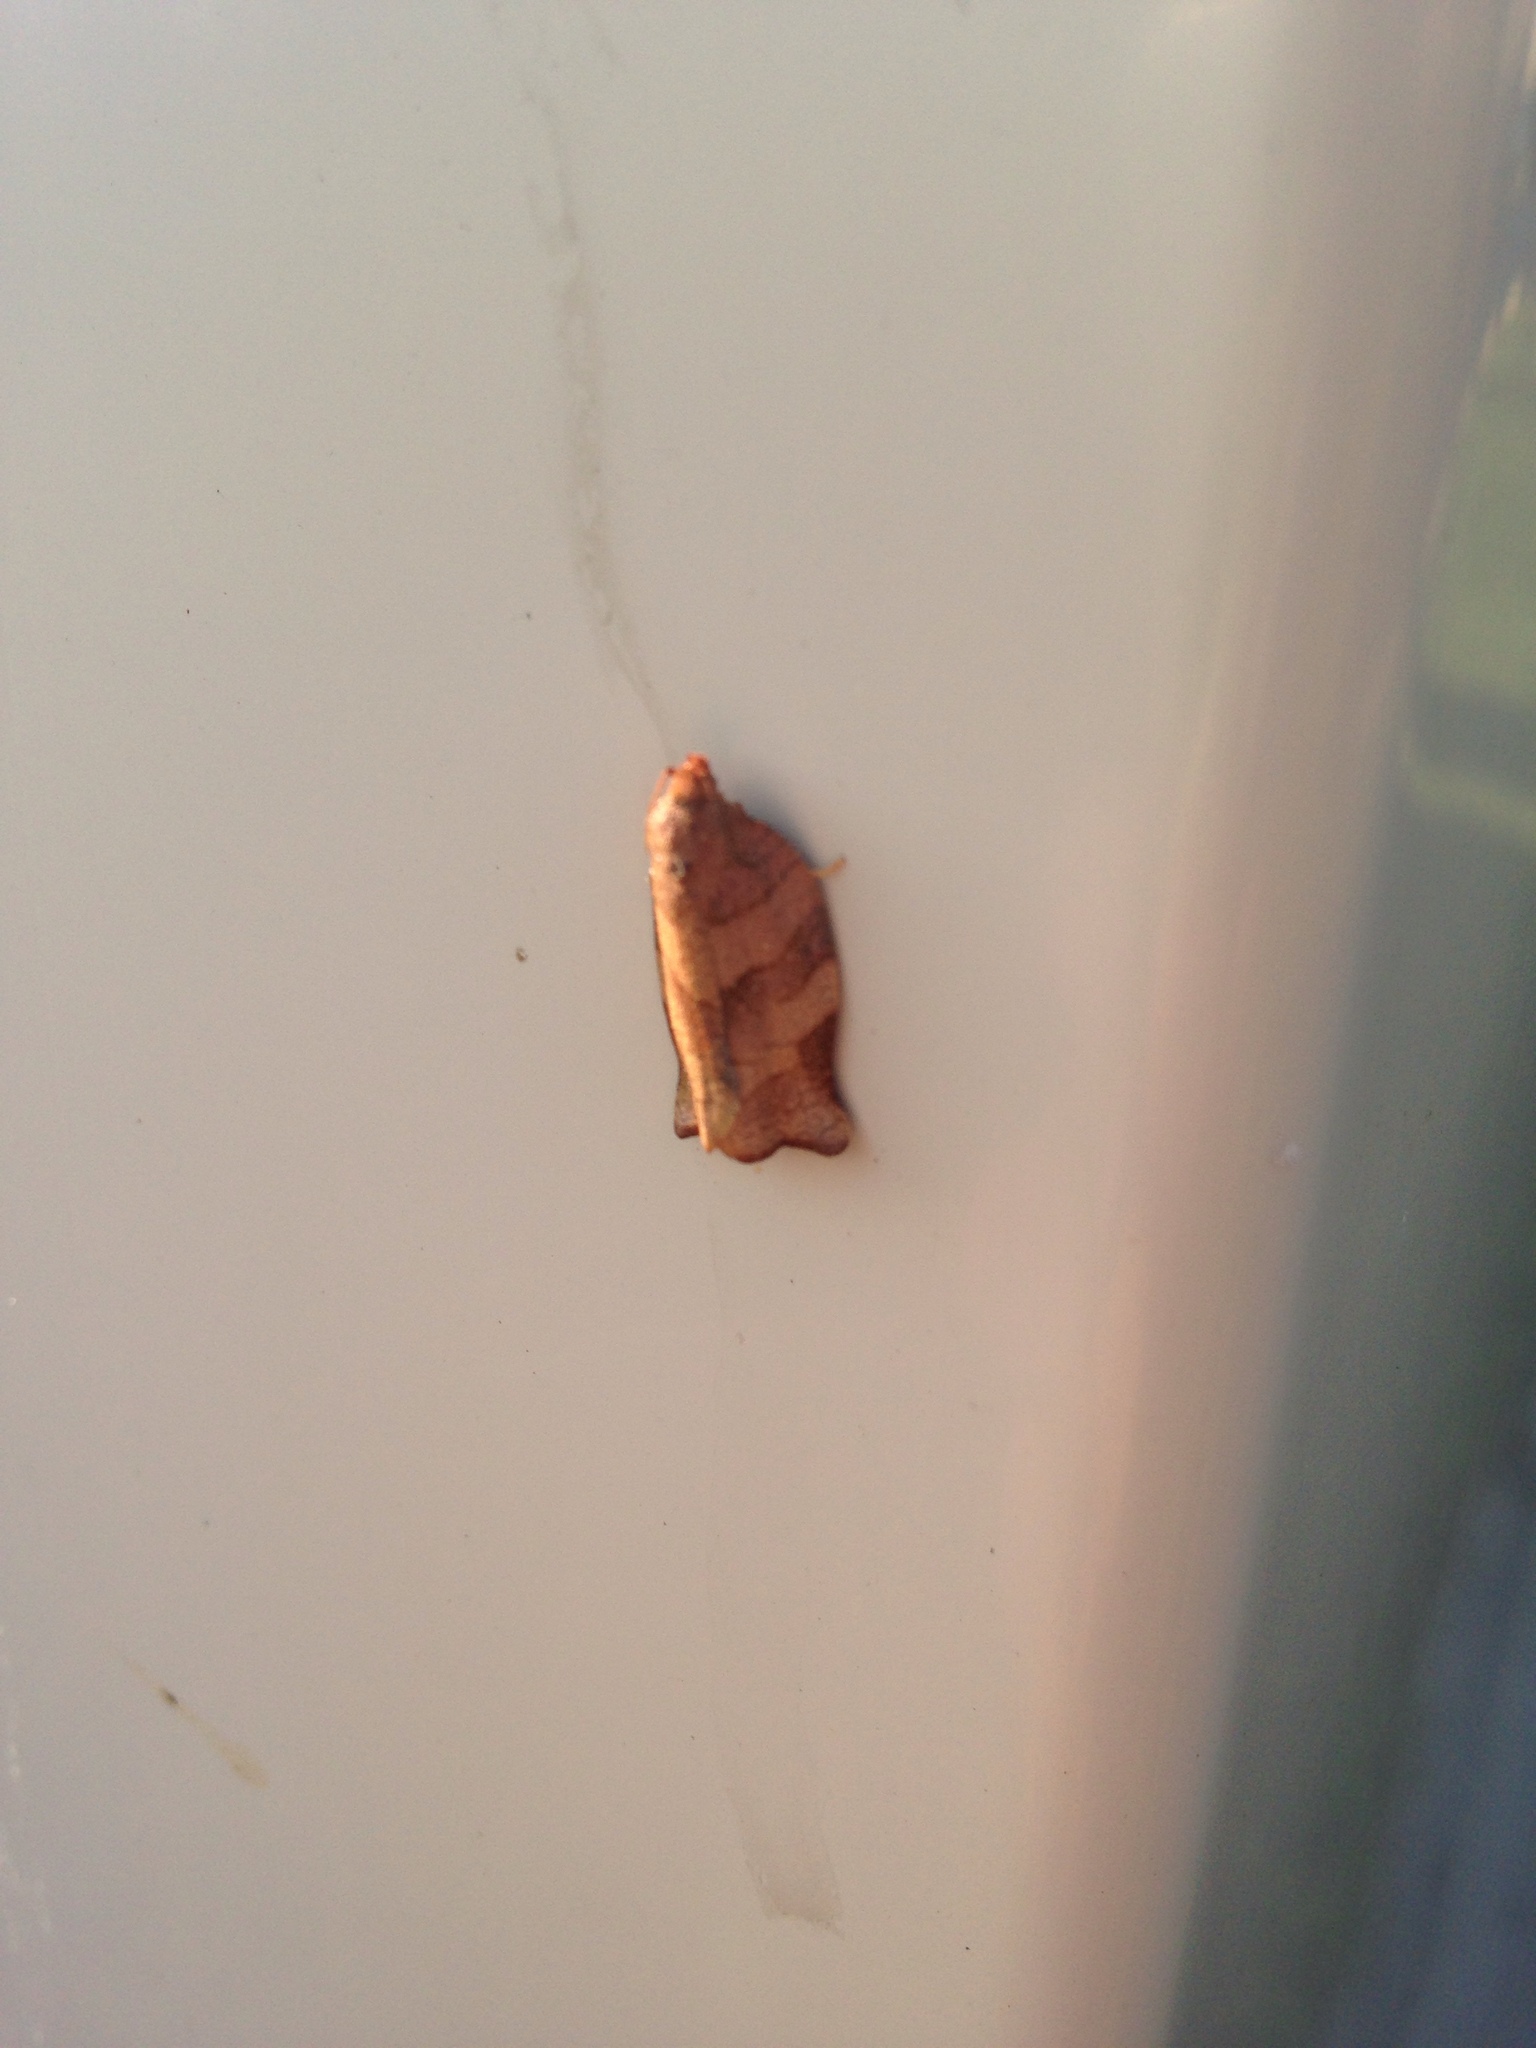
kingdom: Animalia
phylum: Arthropoda
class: Insecta
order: Lepidoptera
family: Tortricidae
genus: Choristoneura
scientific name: Choristoneura rosaceana
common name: Oblique-banded leafroller moth
